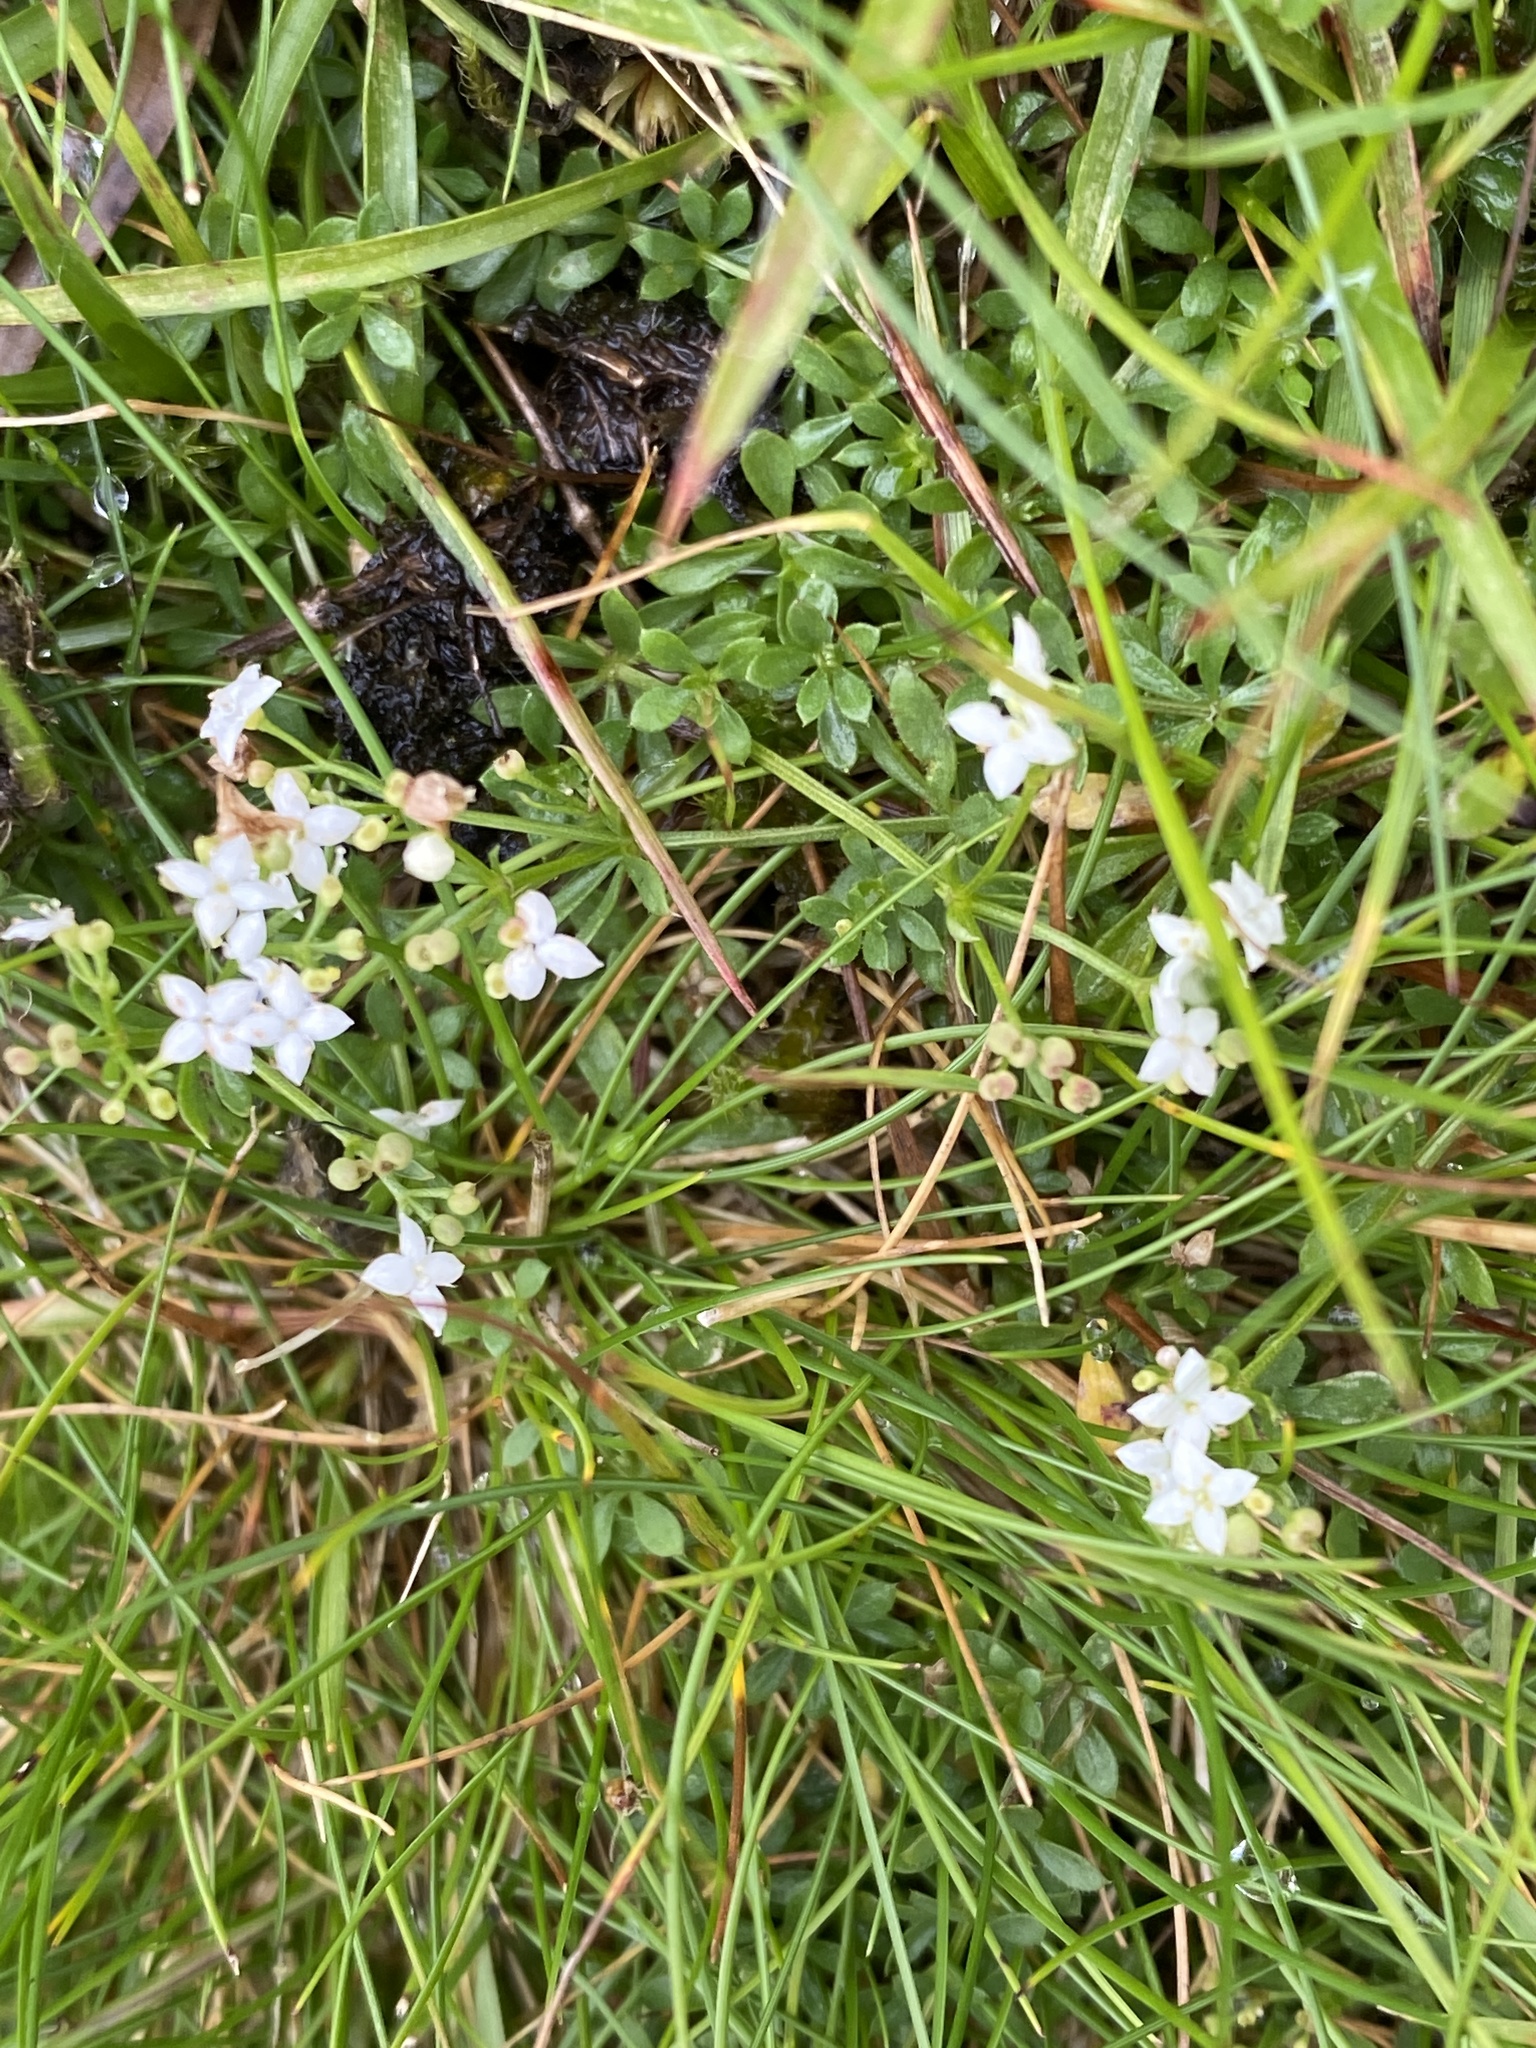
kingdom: Plantae
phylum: Tracheophyta
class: Magnoliopsida
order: Gentianales
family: Rubiaceae
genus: Galium
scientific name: Galium saxatile
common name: Heath bedstraw
